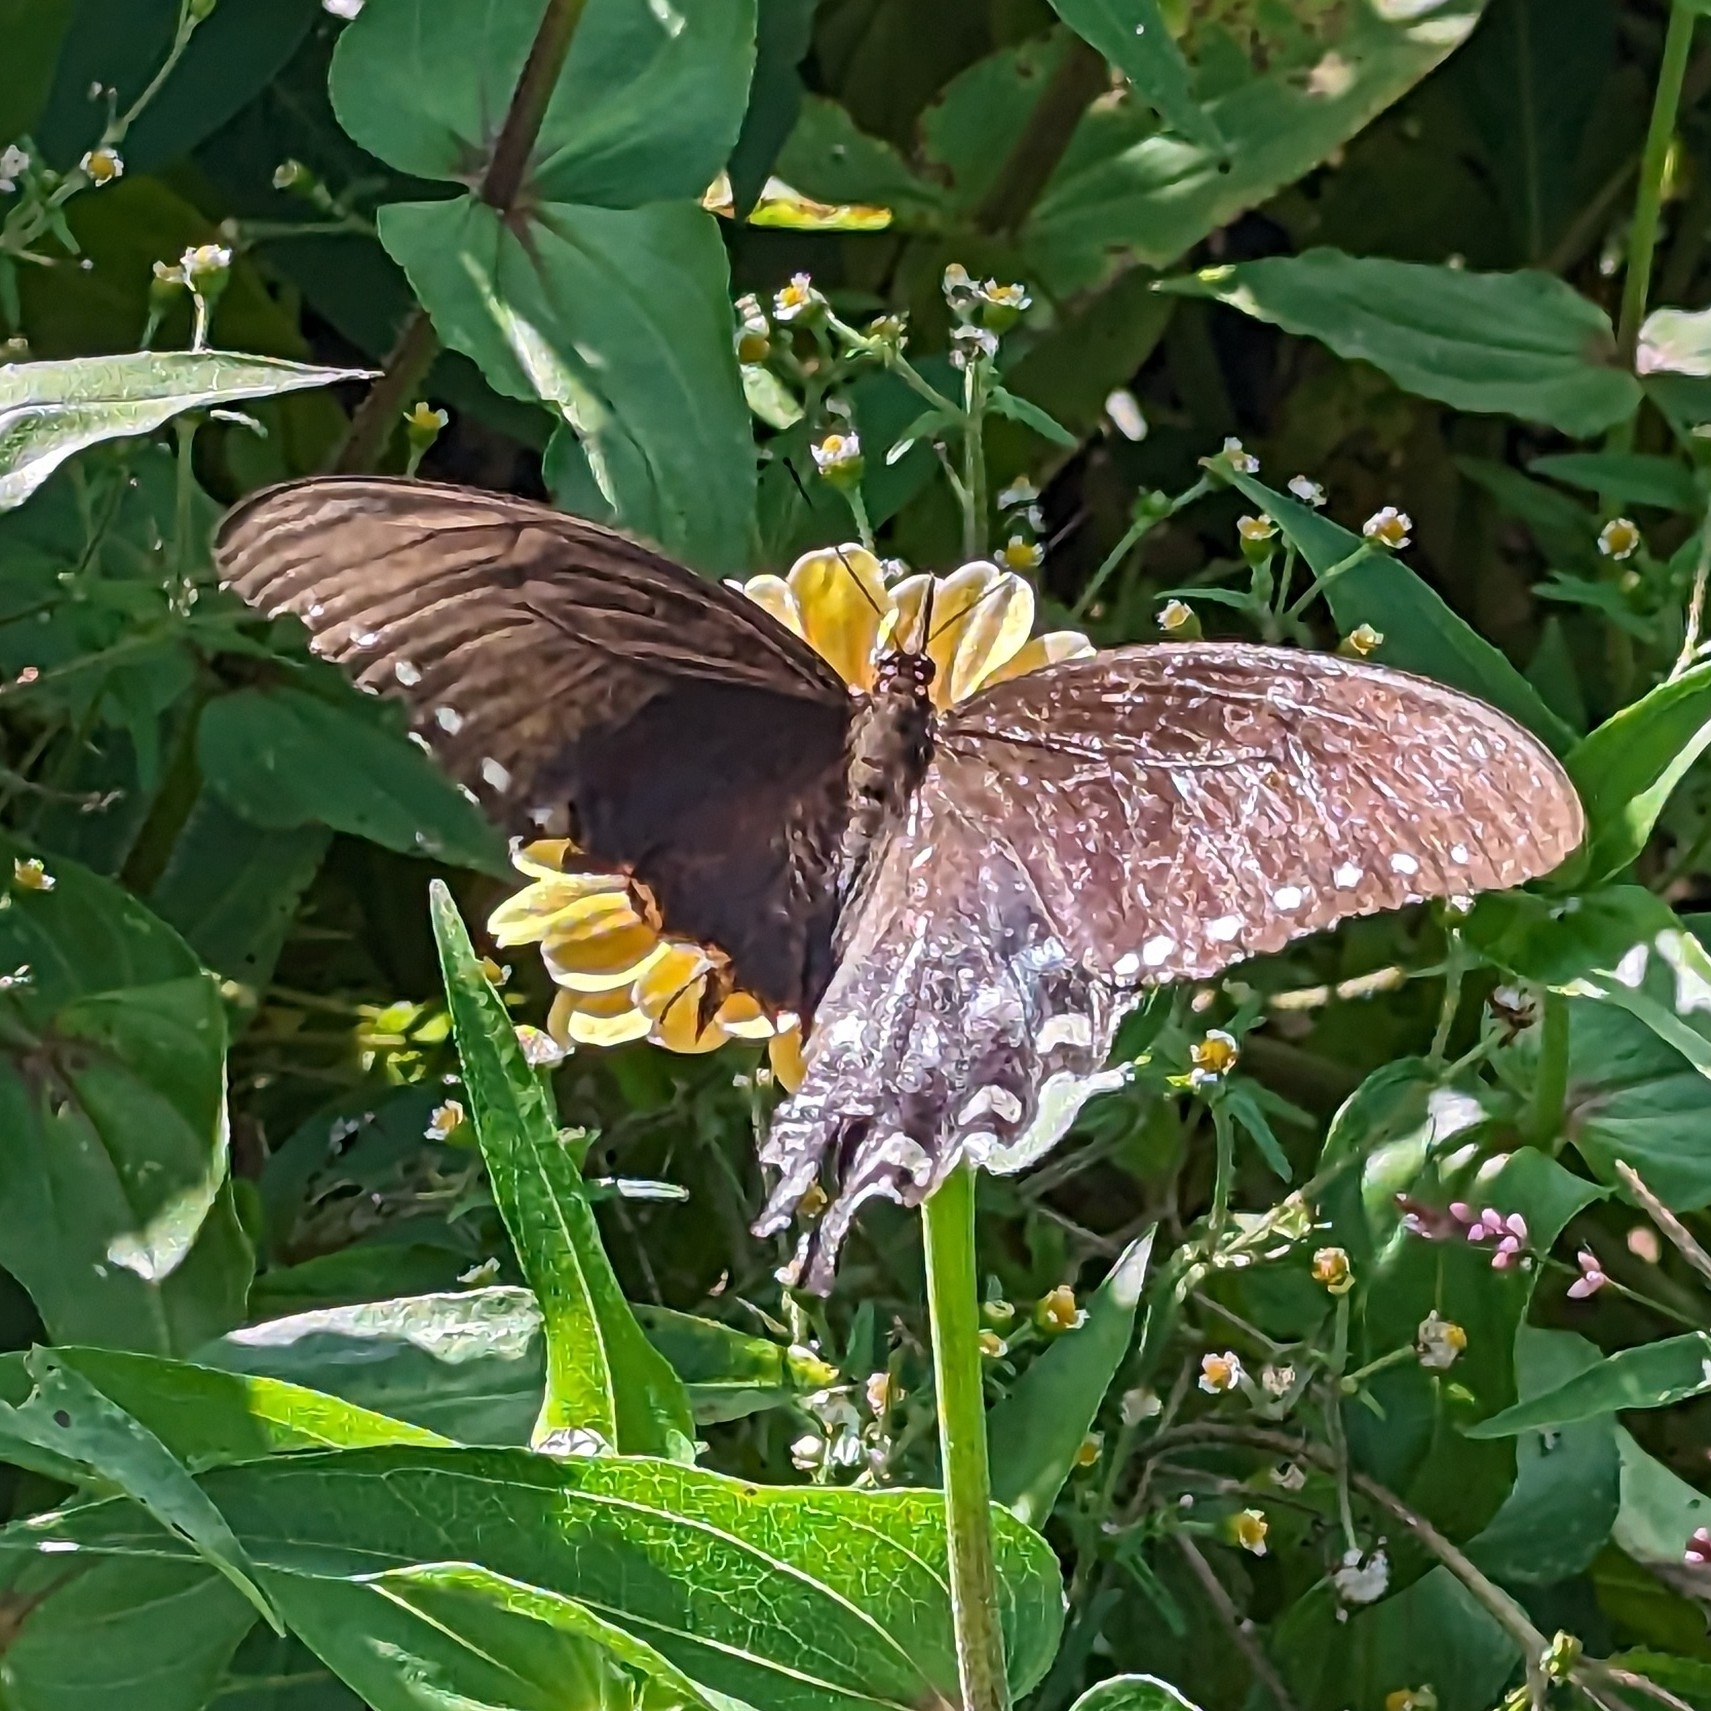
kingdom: Animalia
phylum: Arthropoda
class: Insecta
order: Lepidoptera
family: Papilionidae
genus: Papilio
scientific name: Papilio troilus
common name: Spicebush swallowtail
